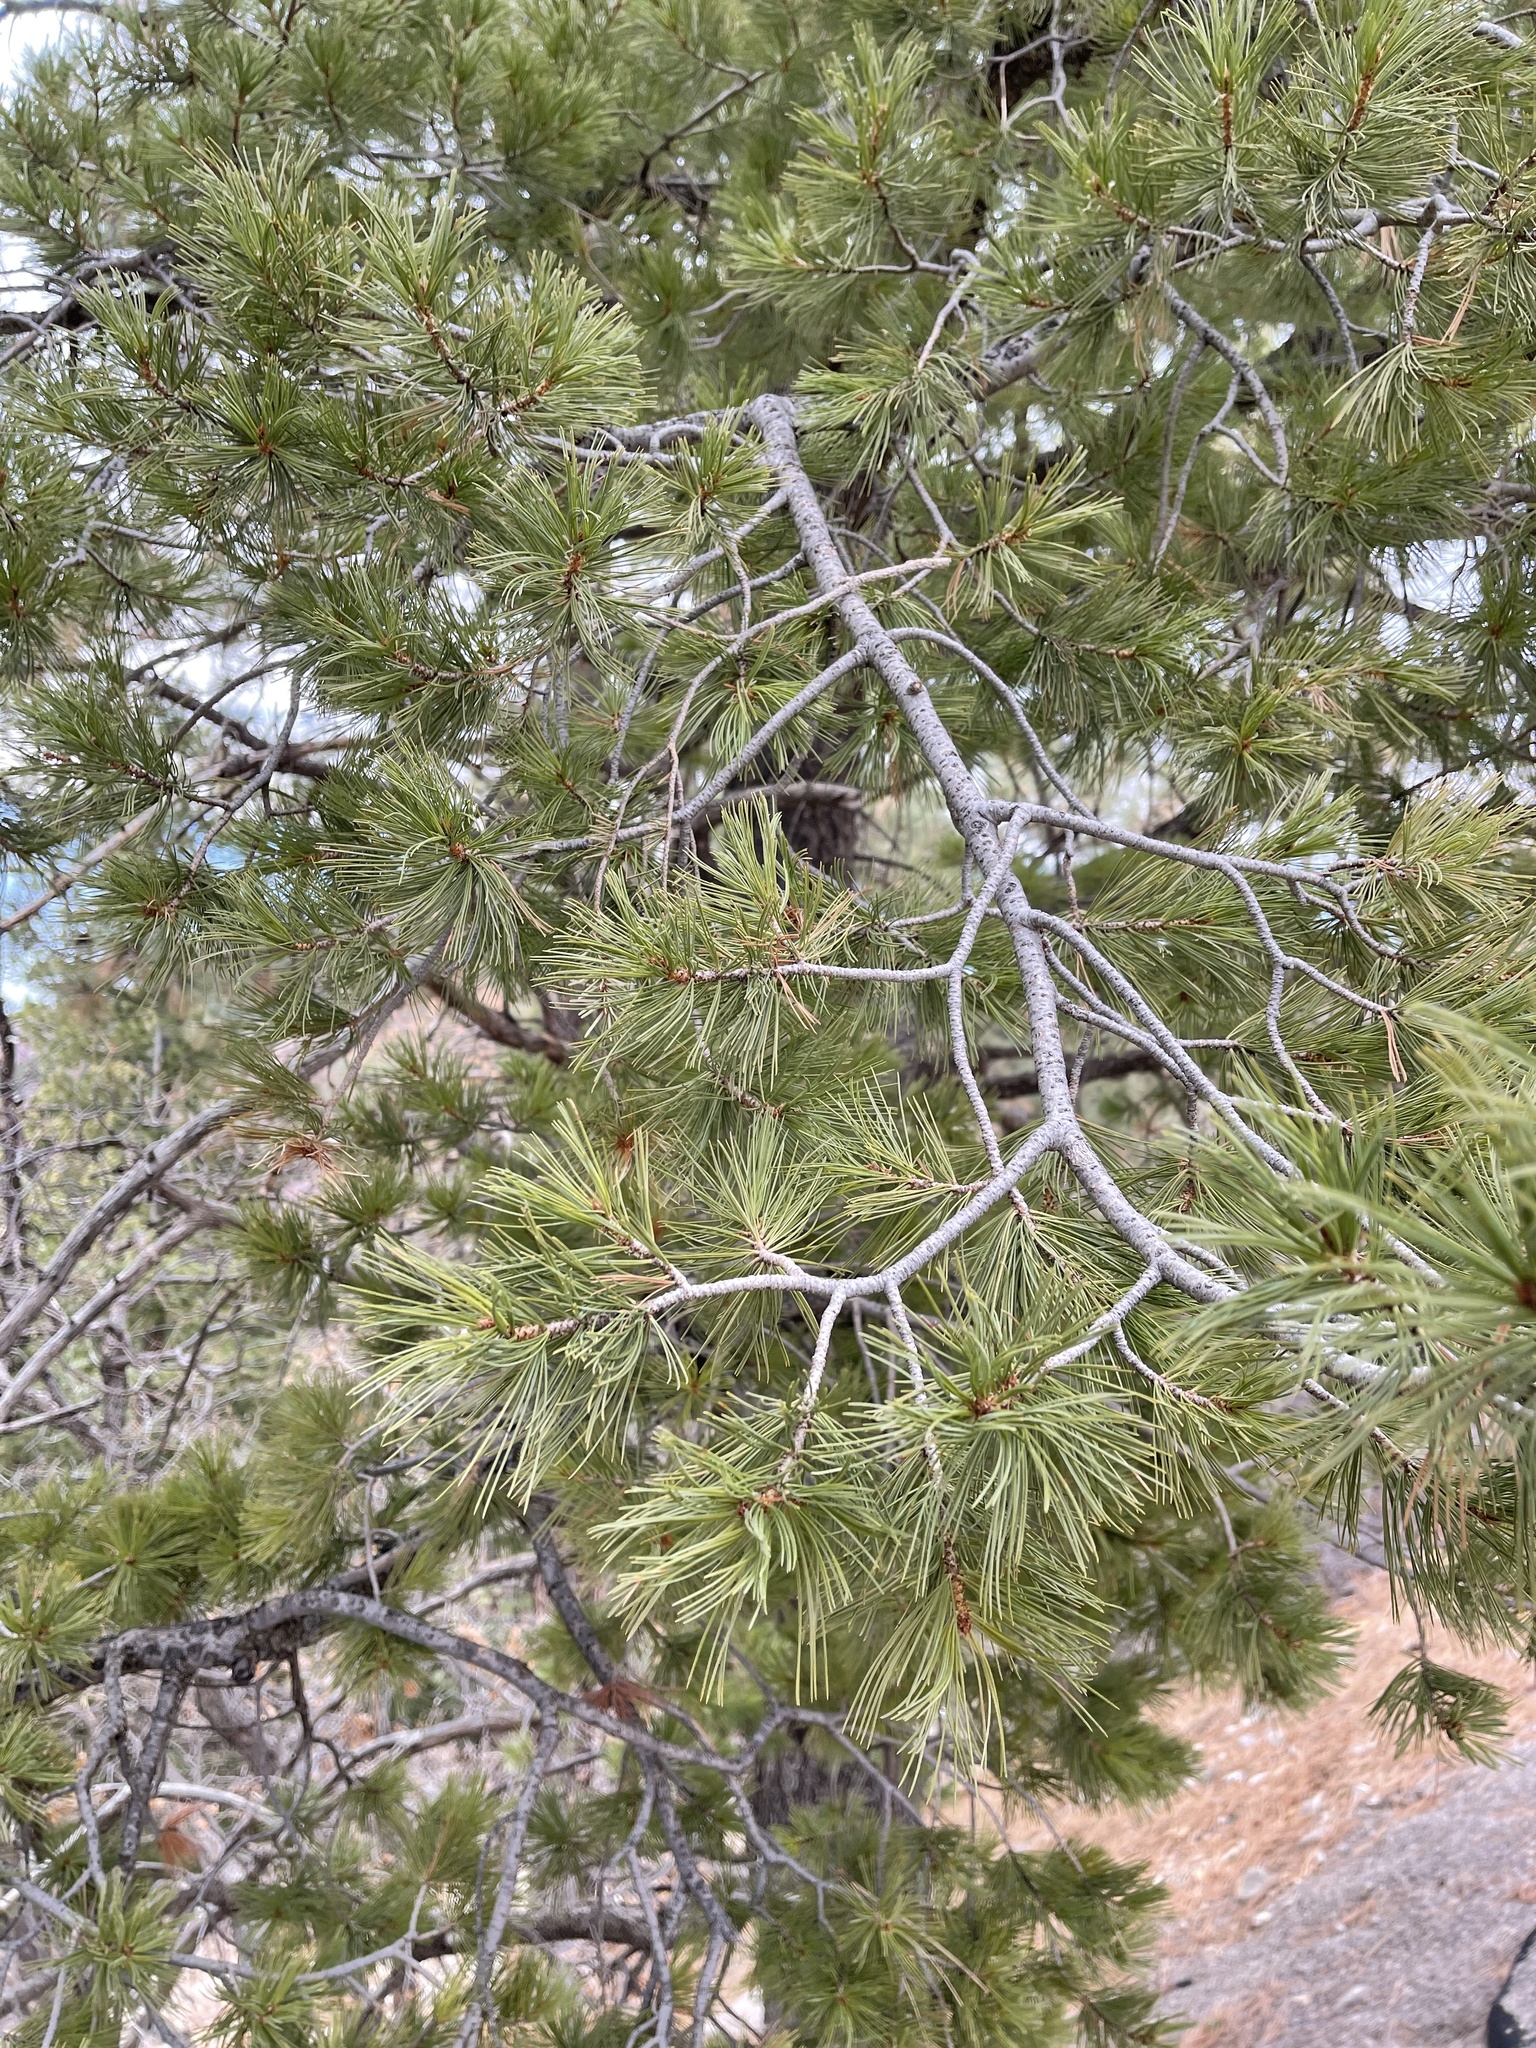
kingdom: Plantae
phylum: Tracheophyta
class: Pinopsida
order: Pinales
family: Pinaceae
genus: Pinus
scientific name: Pinus strobiformis
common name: Southwestern white pine
